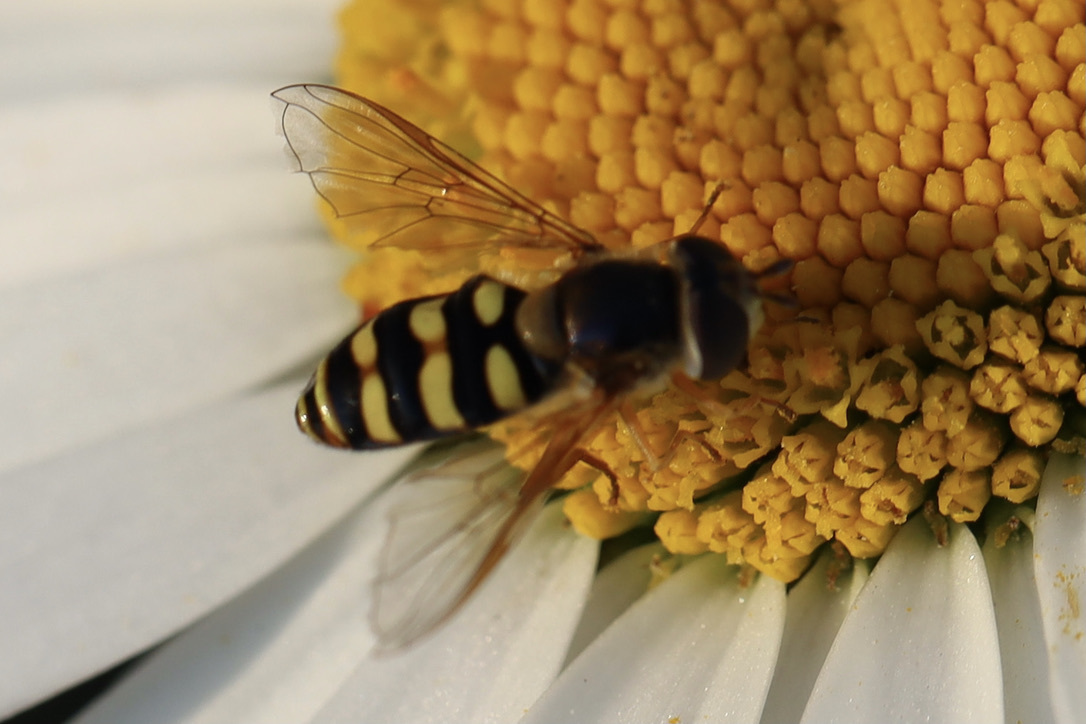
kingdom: Animalia
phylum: Arthropoda
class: Insecta
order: Diptera
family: Syrphidae
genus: Eupeodes
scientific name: Eupeodes fumipennis
